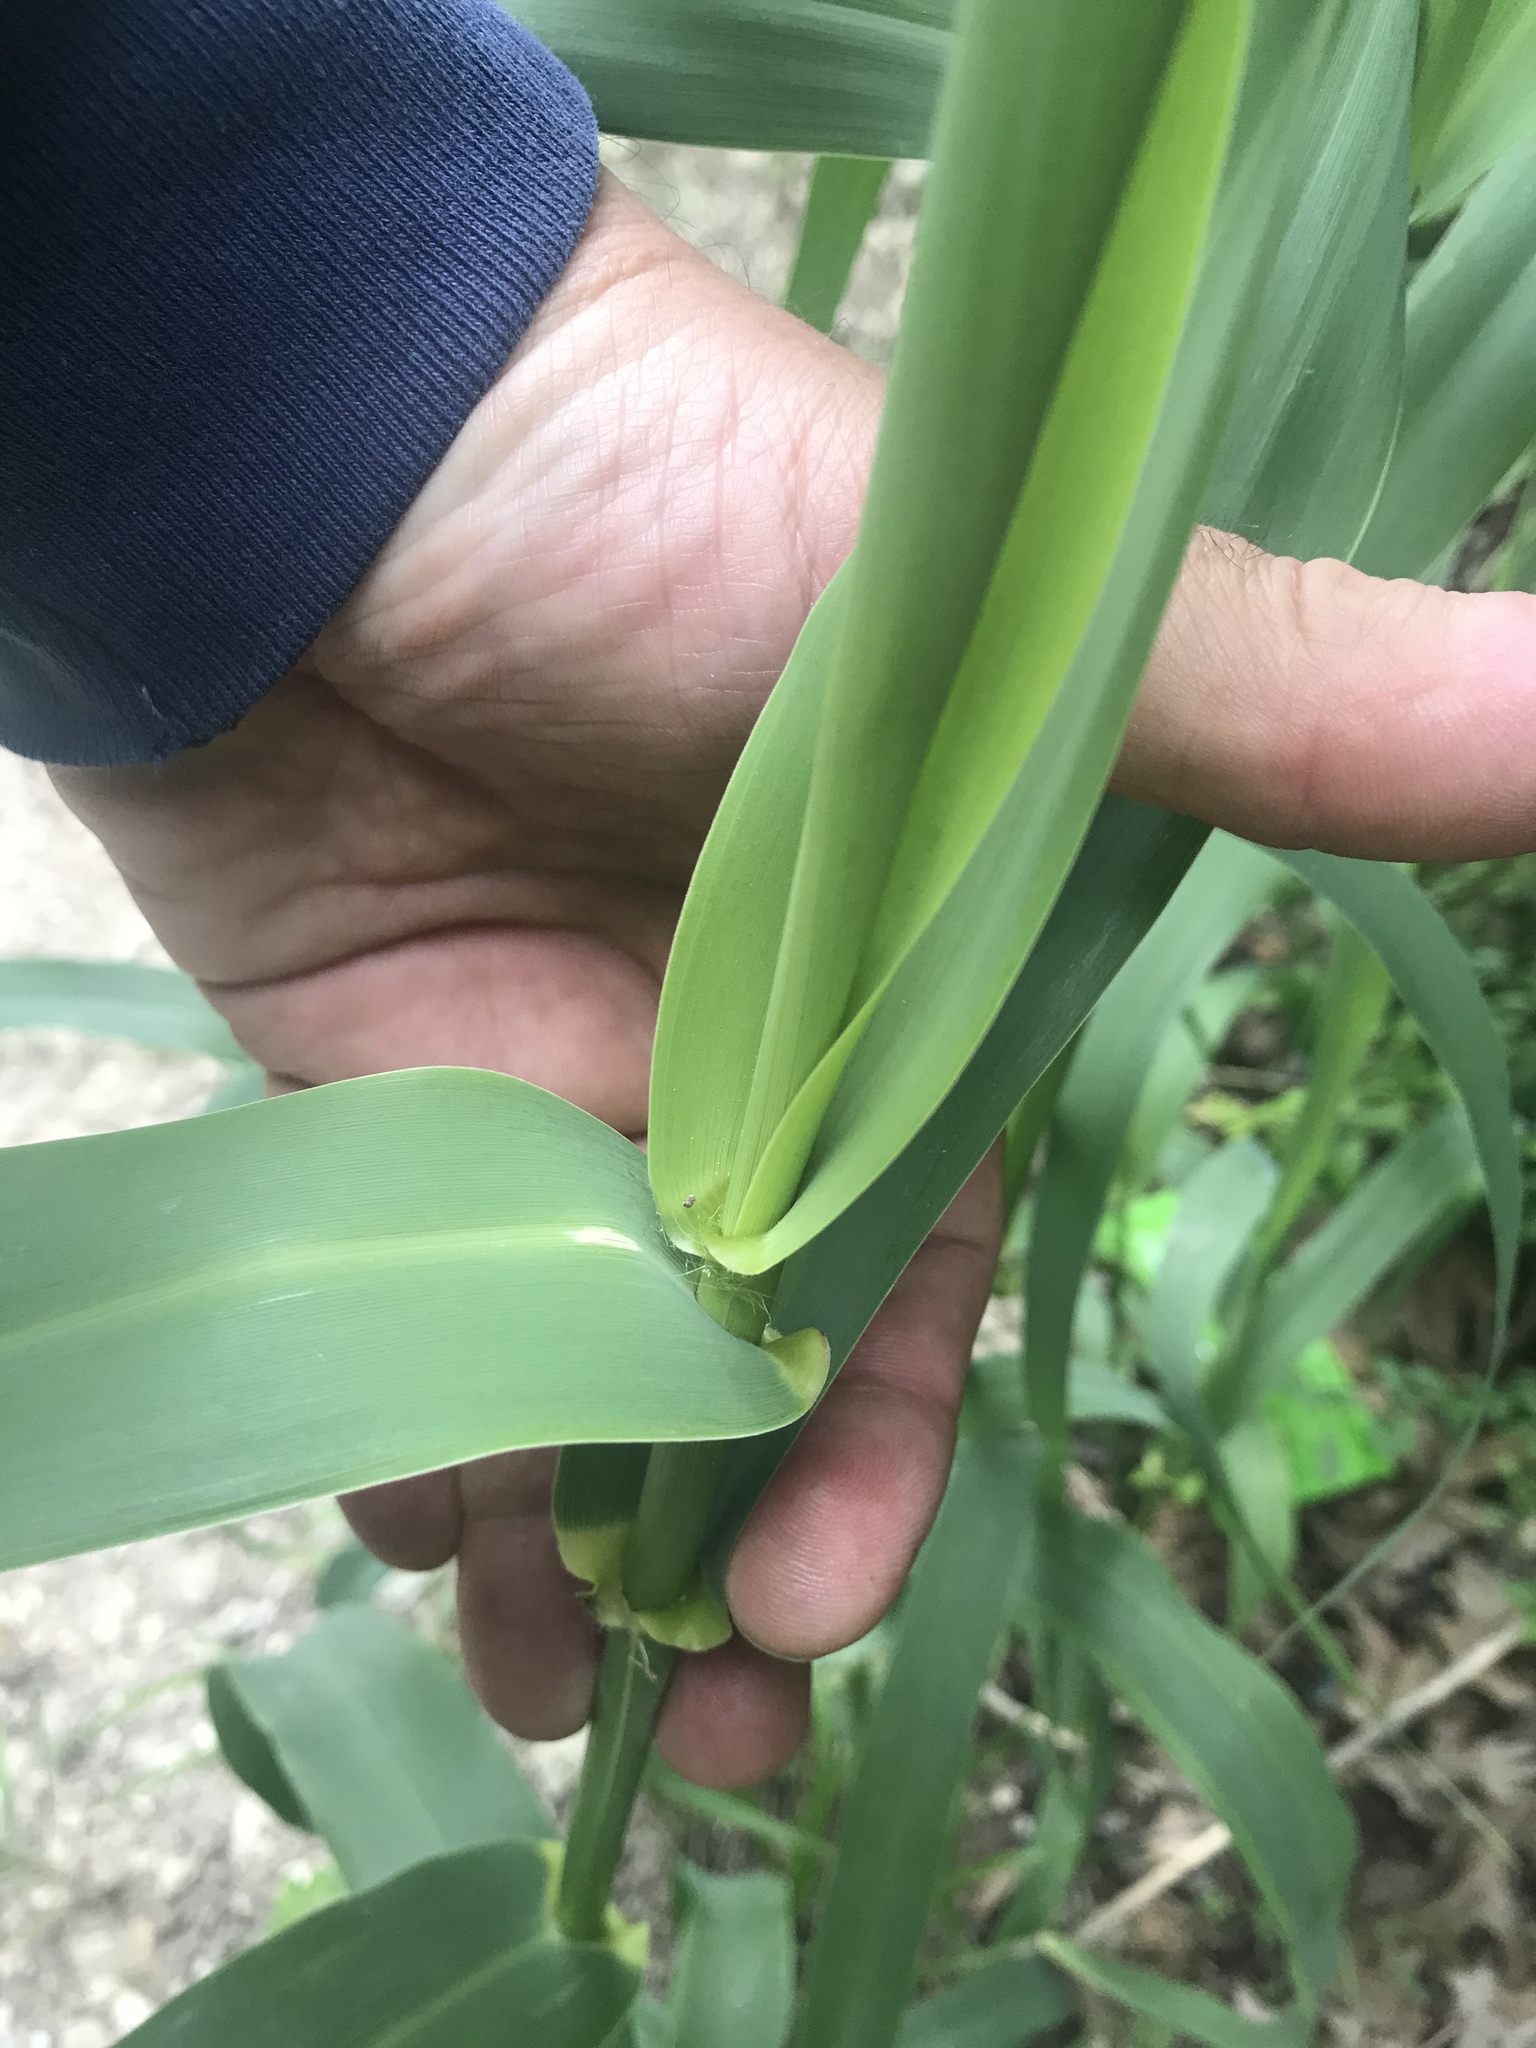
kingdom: Plantae
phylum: Tracheophyta
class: Liliopsida
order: Poales
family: Poaceae
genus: Arundo
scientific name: Arundo donax
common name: Giant reed
